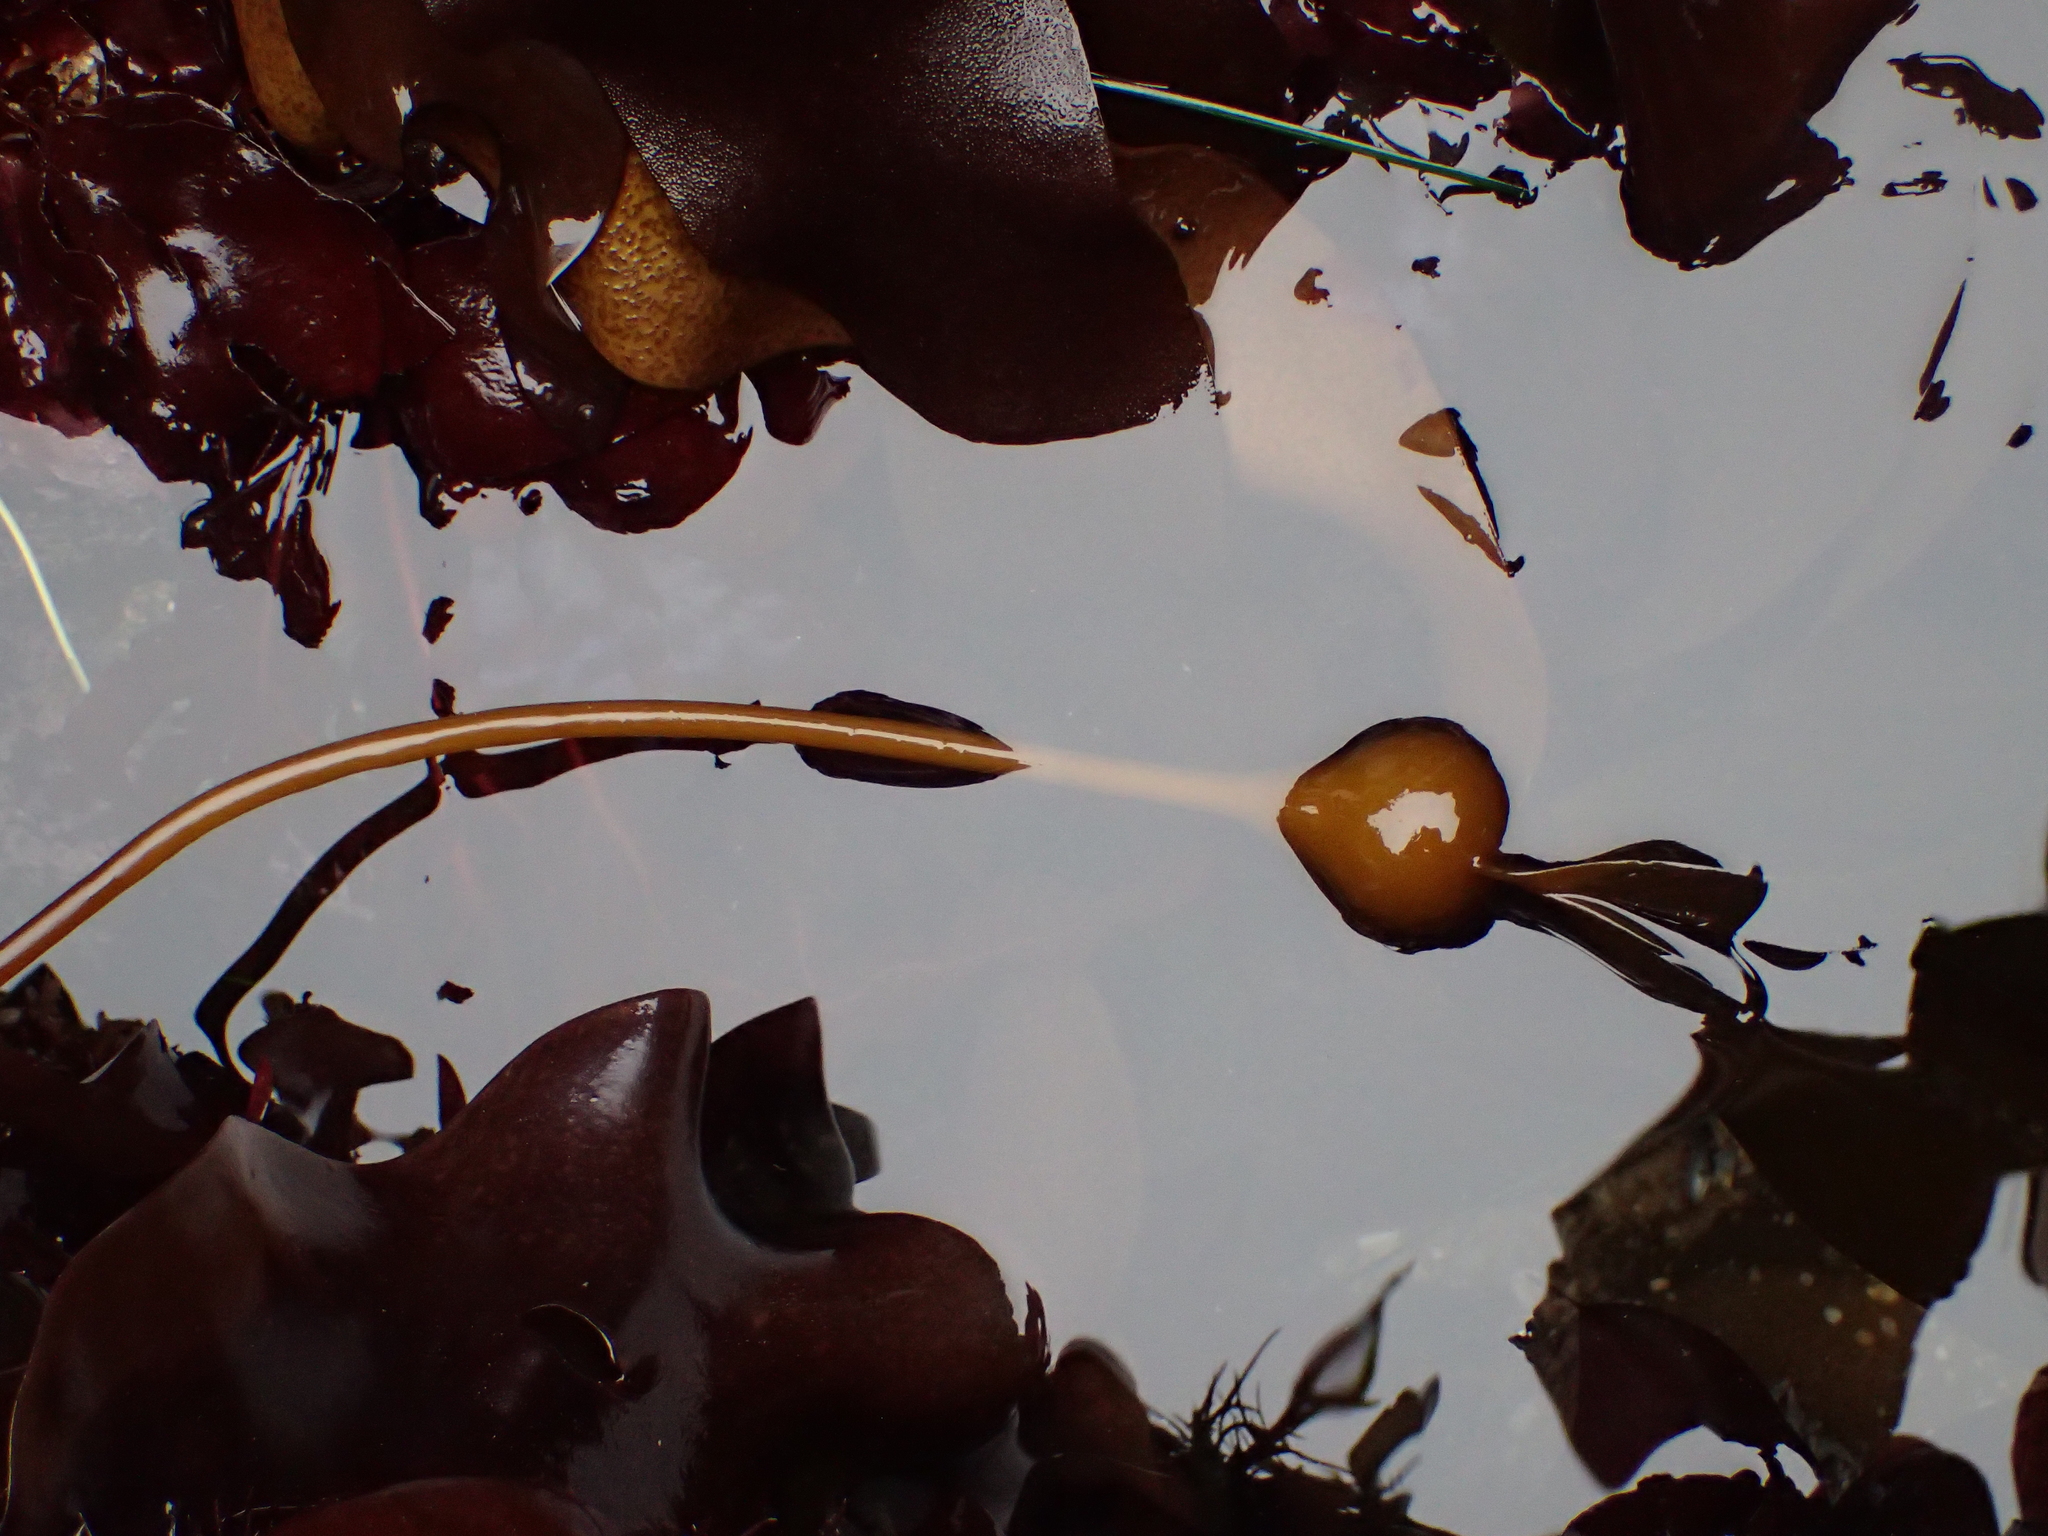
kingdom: Chromista
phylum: Ochrophyta
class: Phaeophyceae
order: Laminariales
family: Laminariaceae
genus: Nereocystis
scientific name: Nereocystis luetkeana
